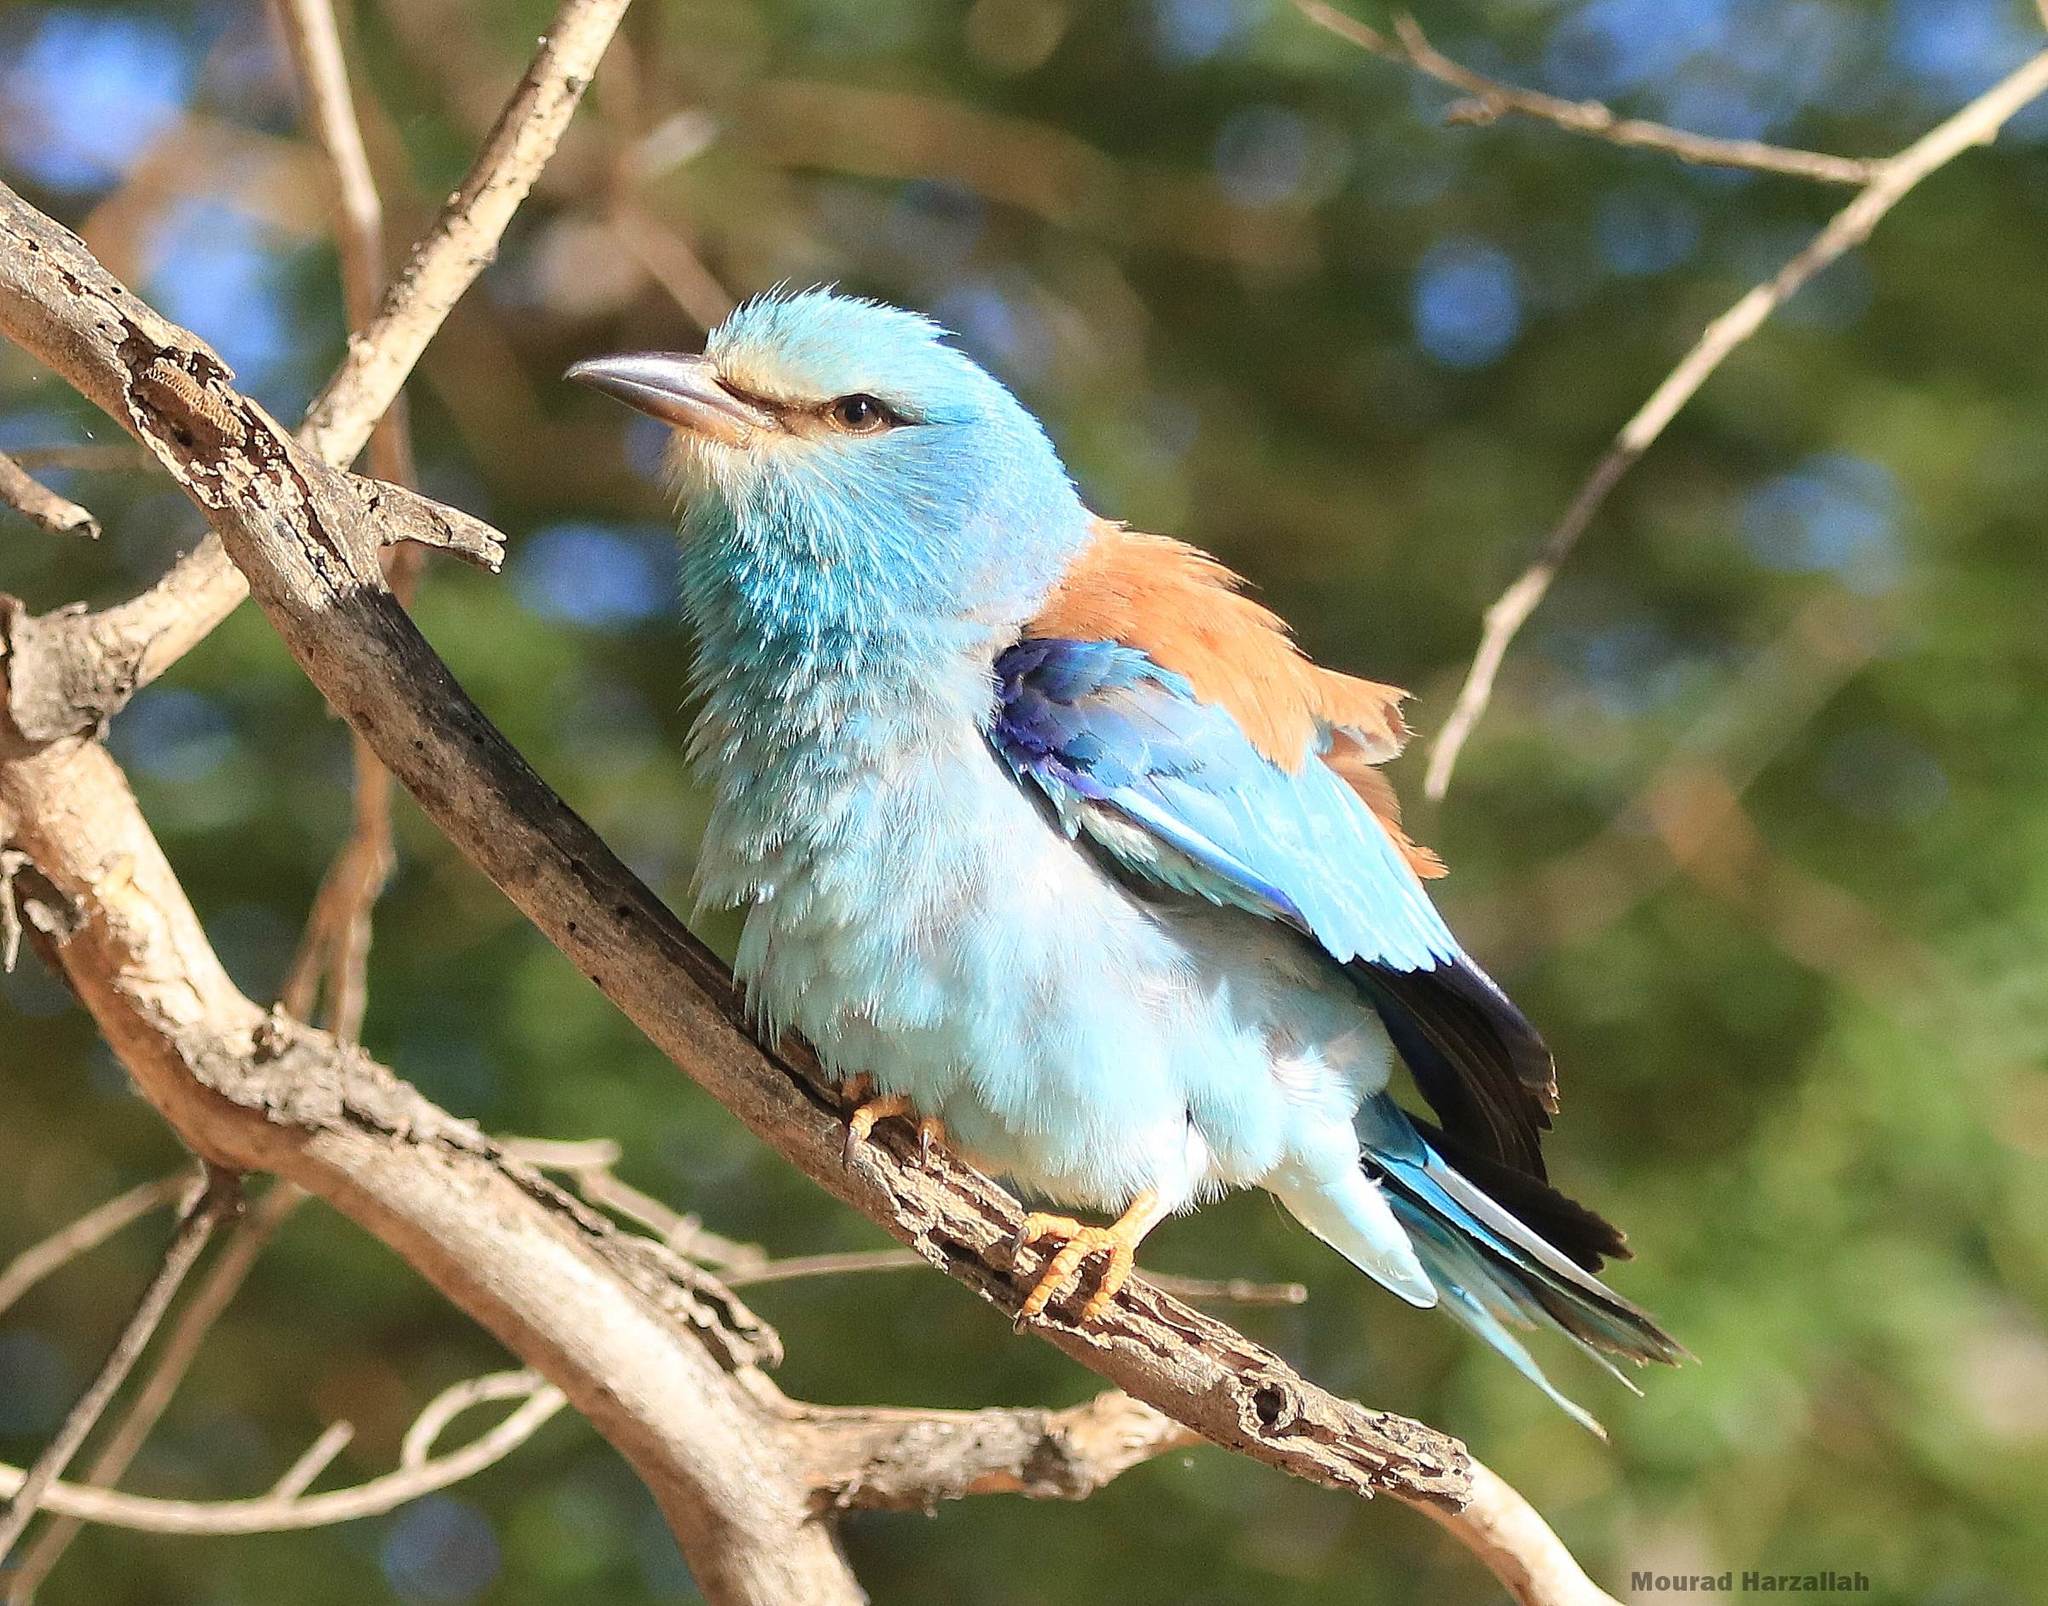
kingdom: Animalia
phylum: Chordata
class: Aves
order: Coraciiformes
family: Coraciidae
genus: Coracias
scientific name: Coracias garrulus
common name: European roller
